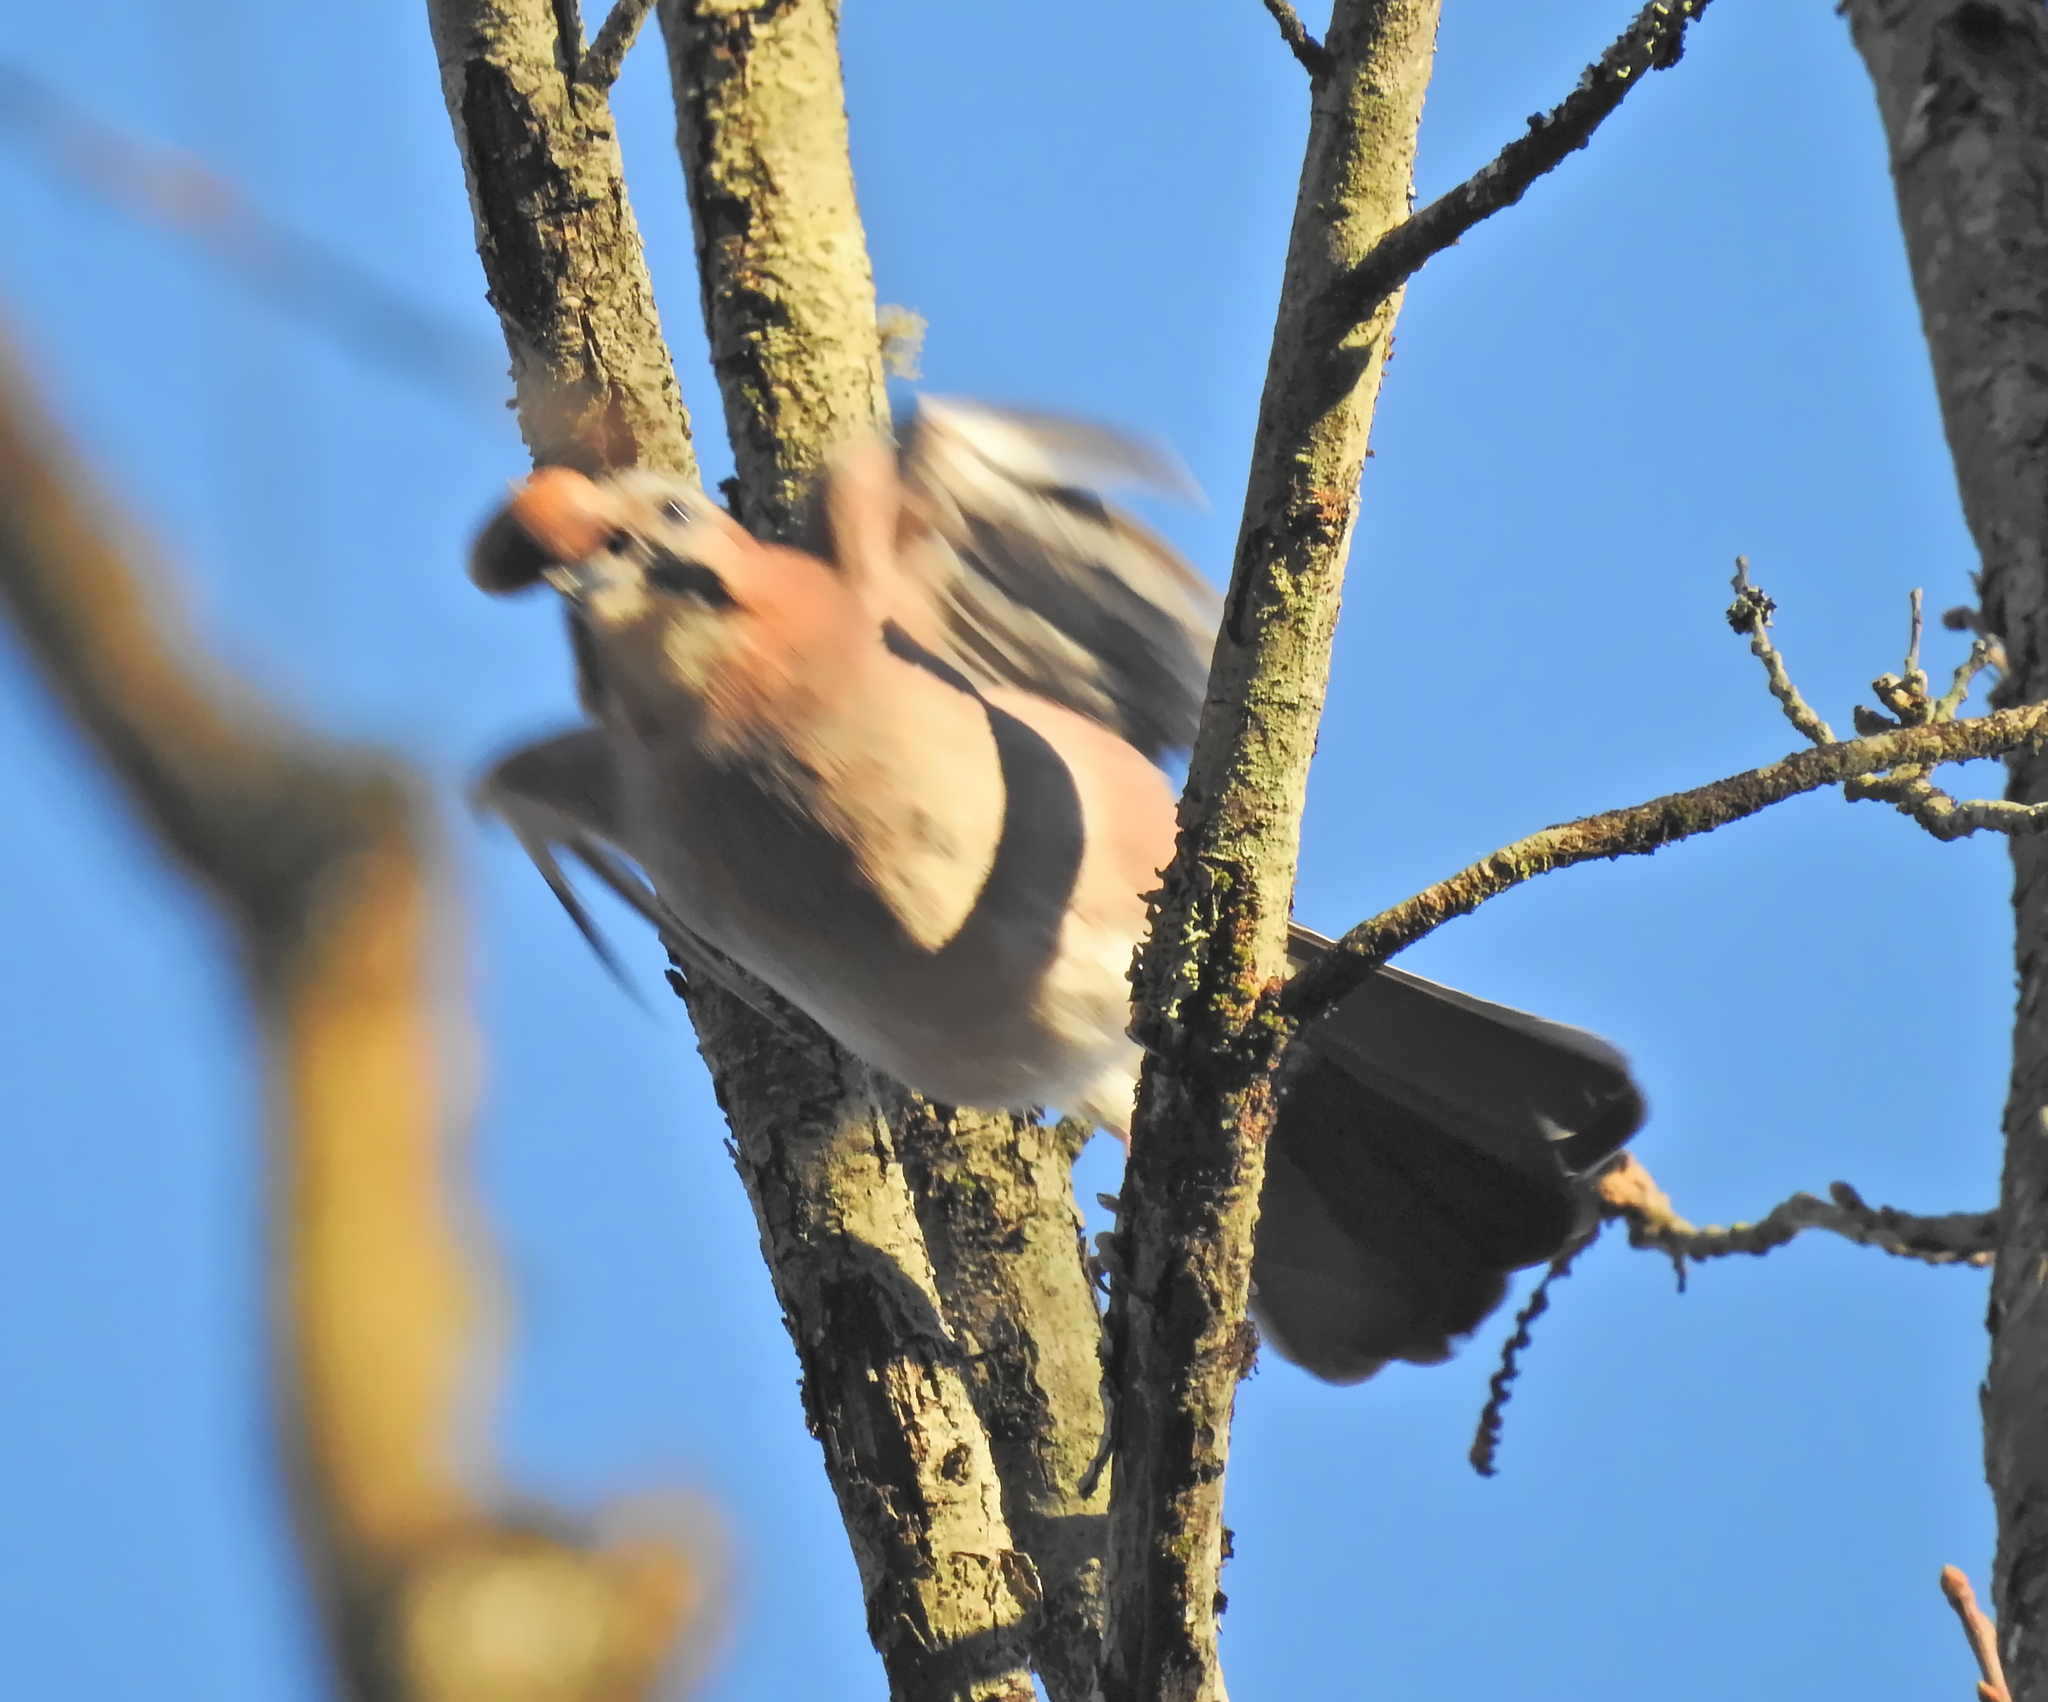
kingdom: Animalia
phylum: Chordata
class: Aves
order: Passeriformes
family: Corvidae
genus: Garrulus
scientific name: Garrulus glandarius
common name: Eurasian jay
